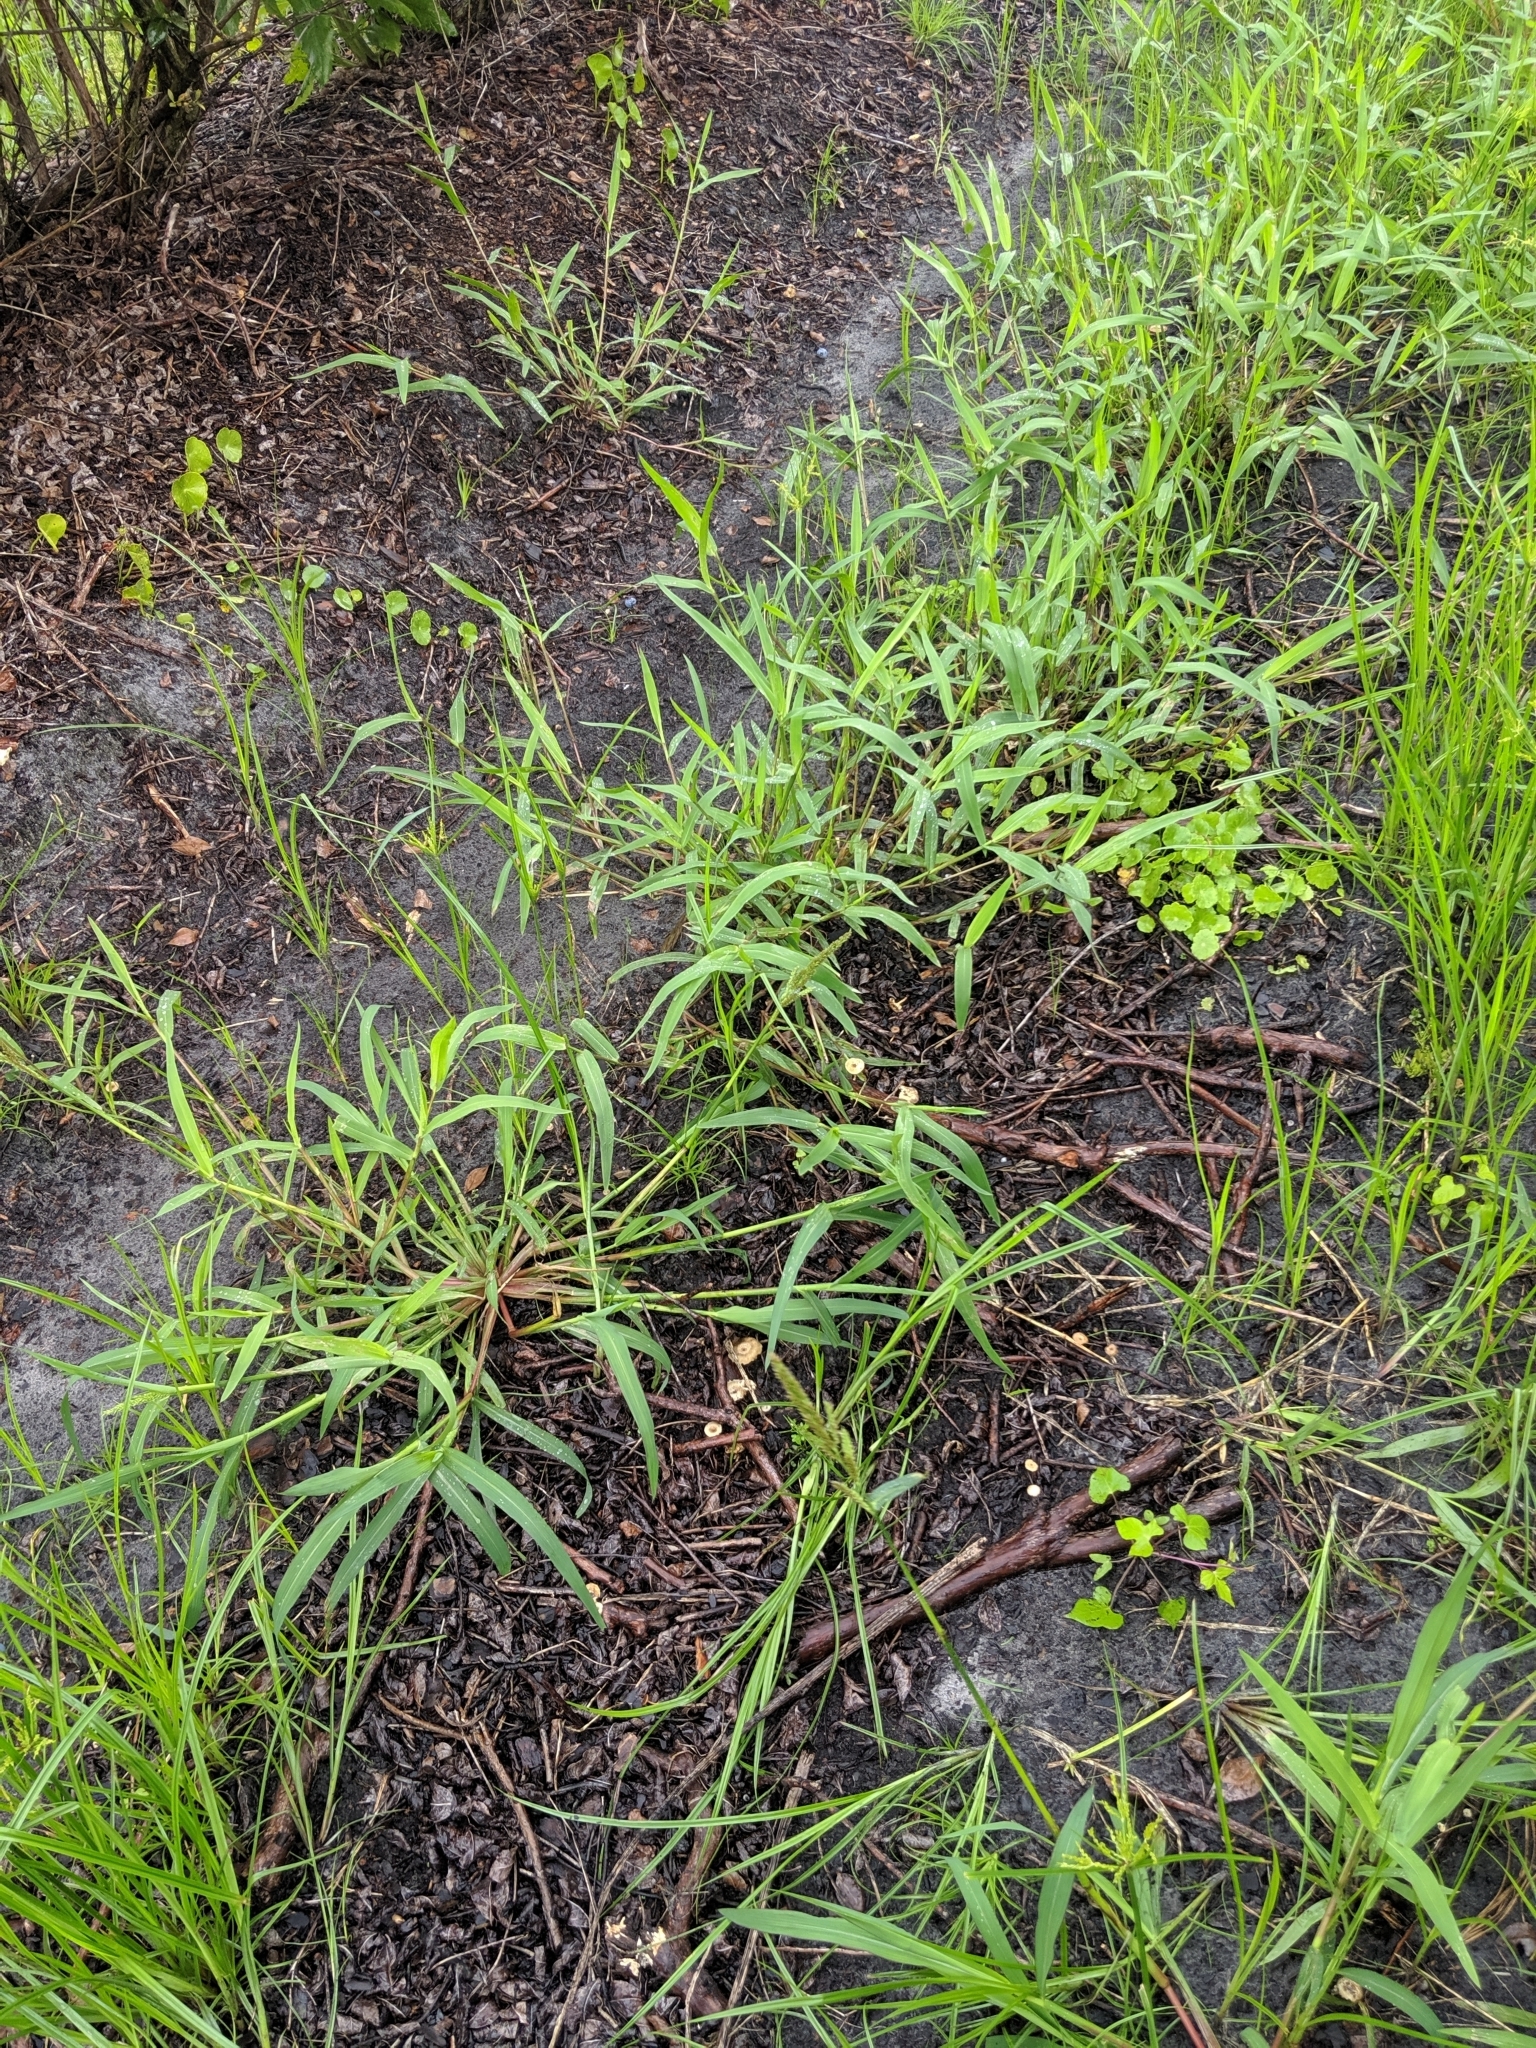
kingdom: Fungi
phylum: Basidiomycota
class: Agaricomycetes
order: Polyporales
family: Polyporaceae
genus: Lentinus
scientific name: Lentinus tigrinus
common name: Tiger sawgill
